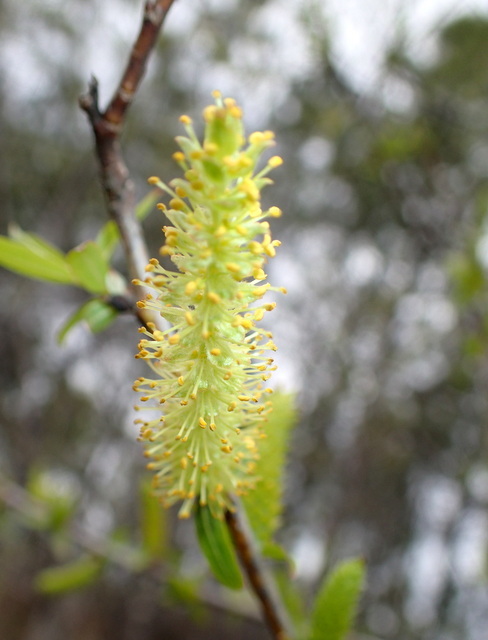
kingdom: Plantae
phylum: Tracheophyta
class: Magnoliopsida
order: Malpighiales
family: Salicaceae
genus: Salix
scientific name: Salix caroliniana
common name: Carolina willow
